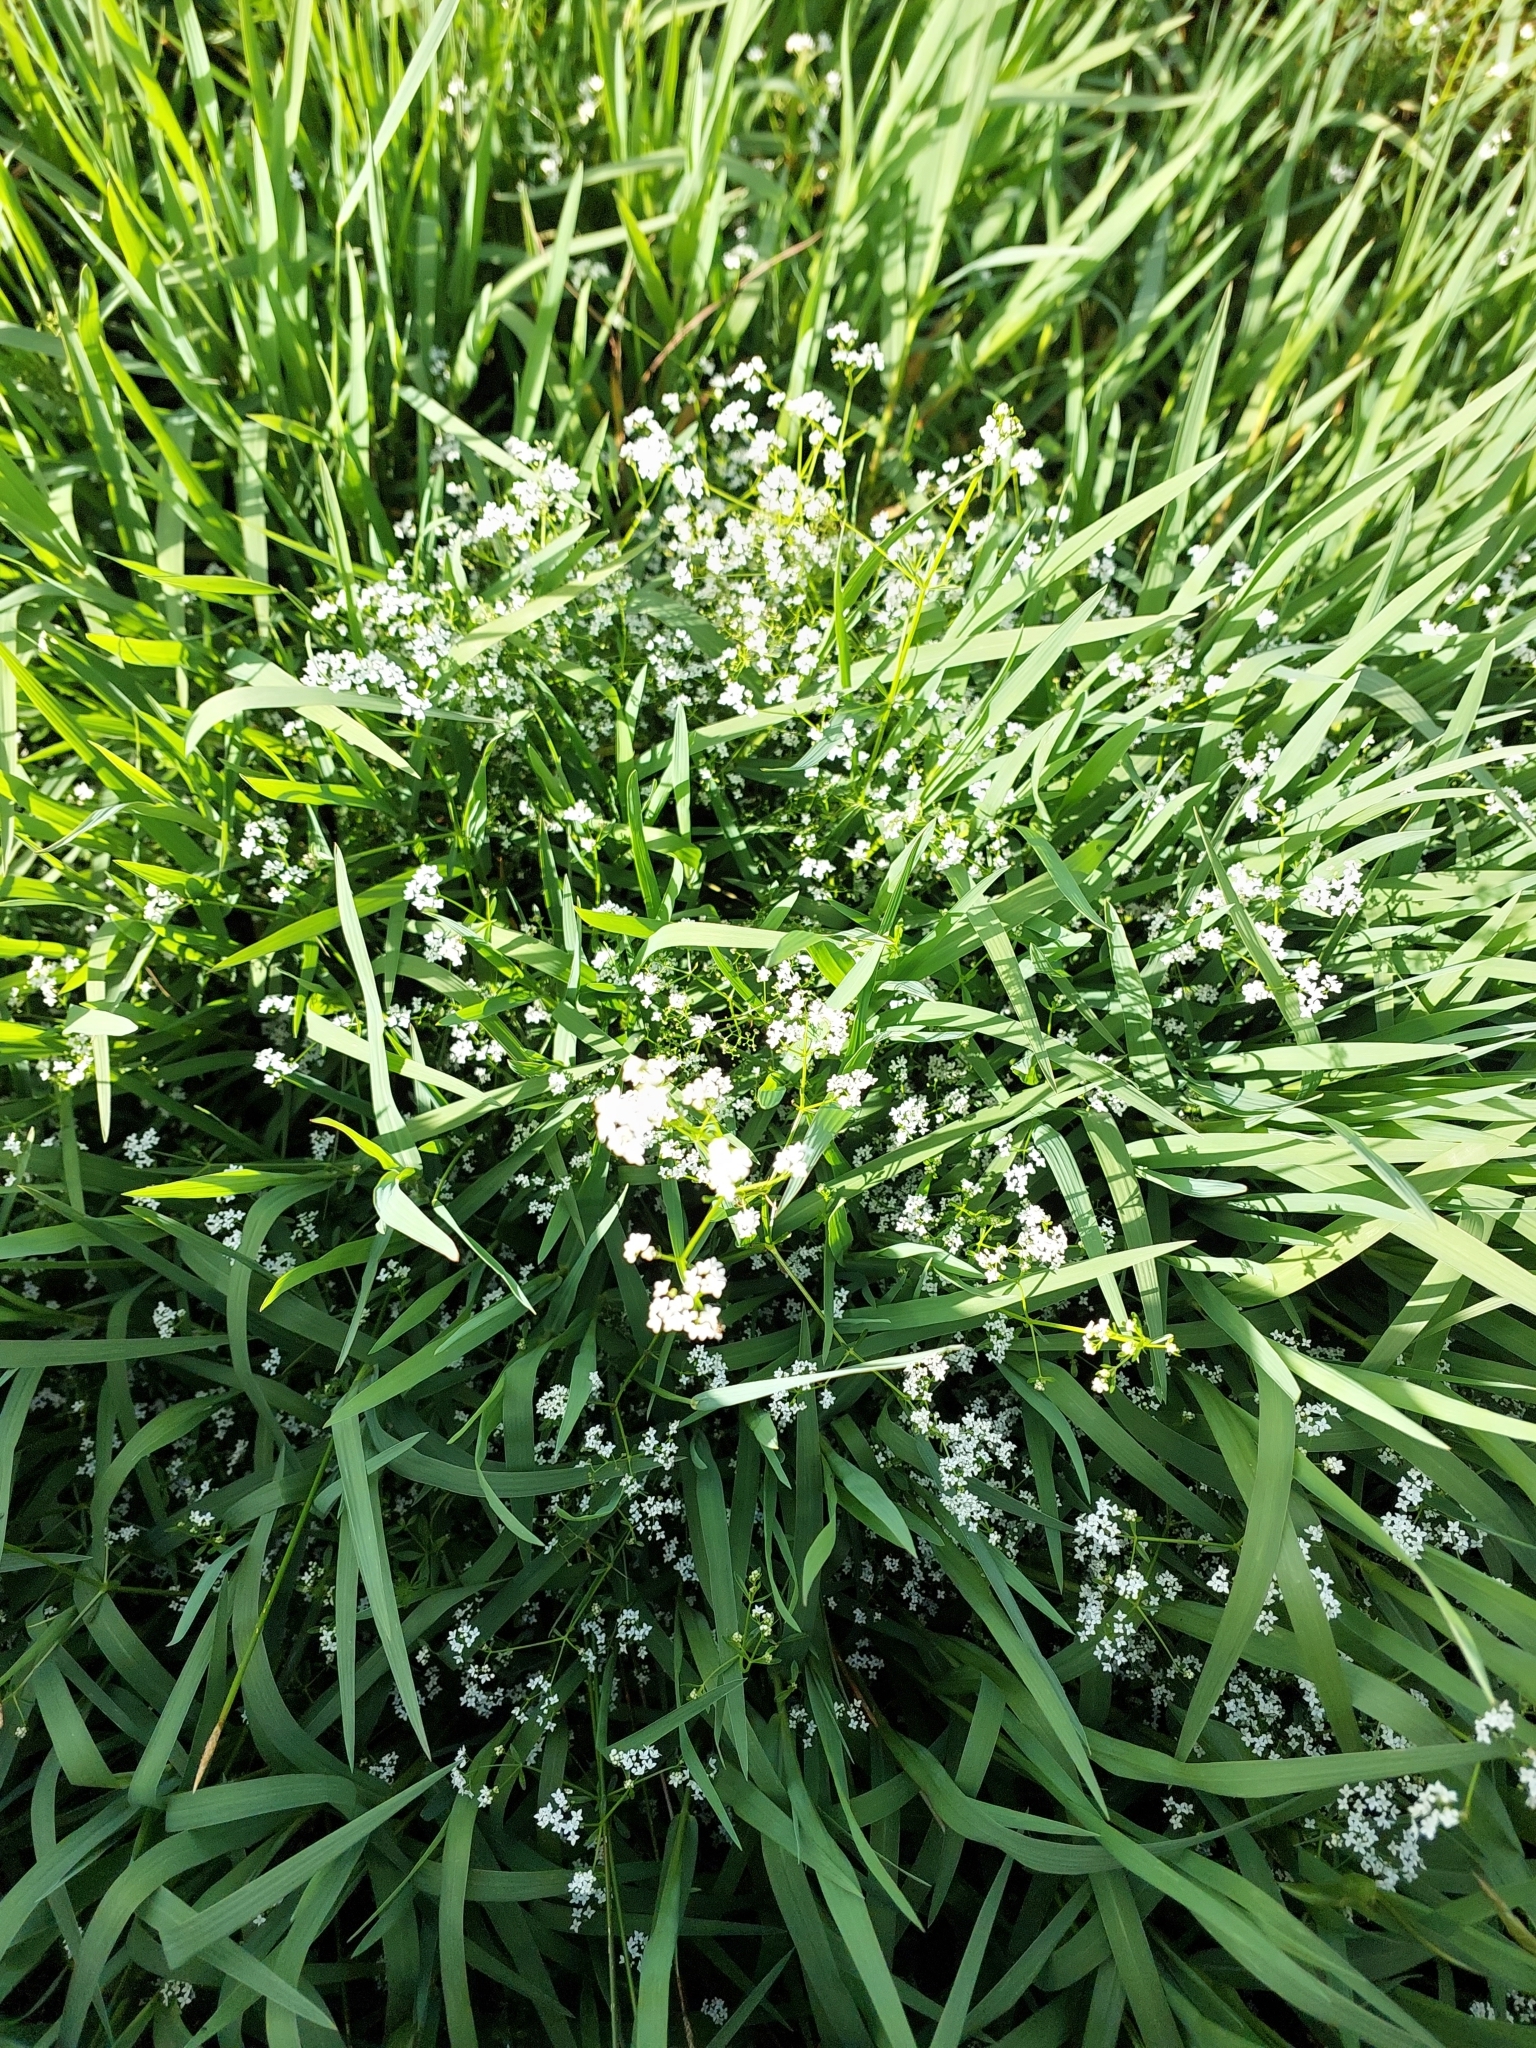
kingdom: Plantae
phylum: Tracheophyta
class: Magnoliopsida
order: Gentianales
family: Rubiaceae
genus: Galium
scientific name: Galium palustre
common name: Common marsh-bedstraw
